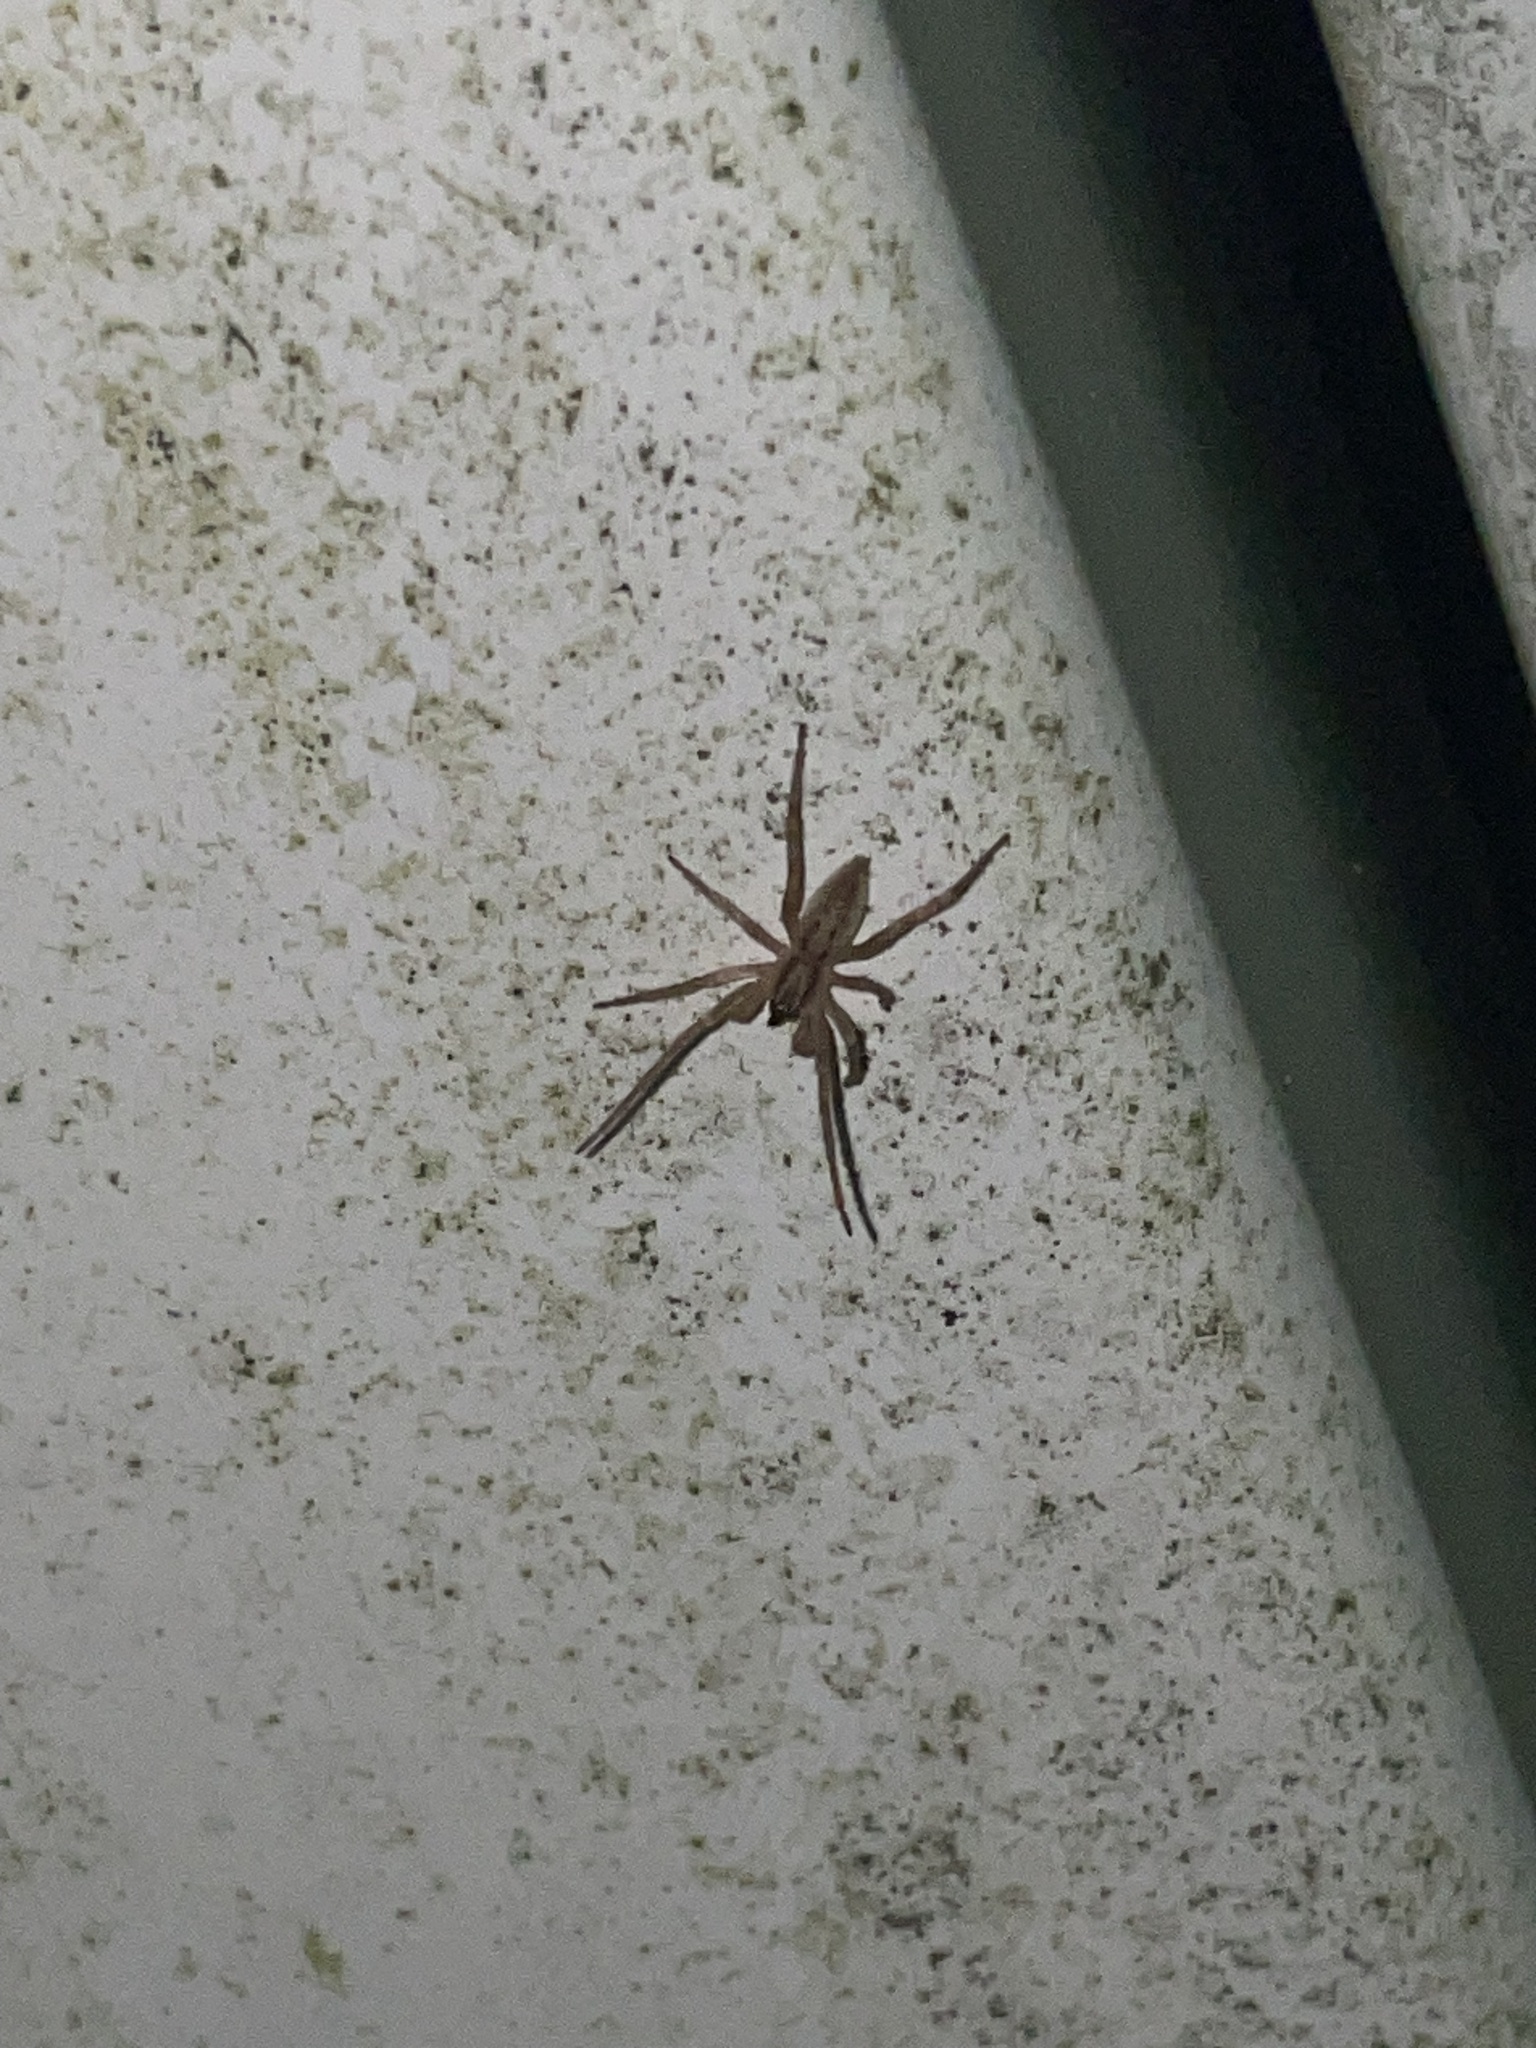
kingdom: Animalia
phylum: Arthropoda
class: Arachnida
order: Araneae
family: Anyphaenidae
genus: Hibana
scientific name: Hibana gracilis
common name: Garden ghost spider
